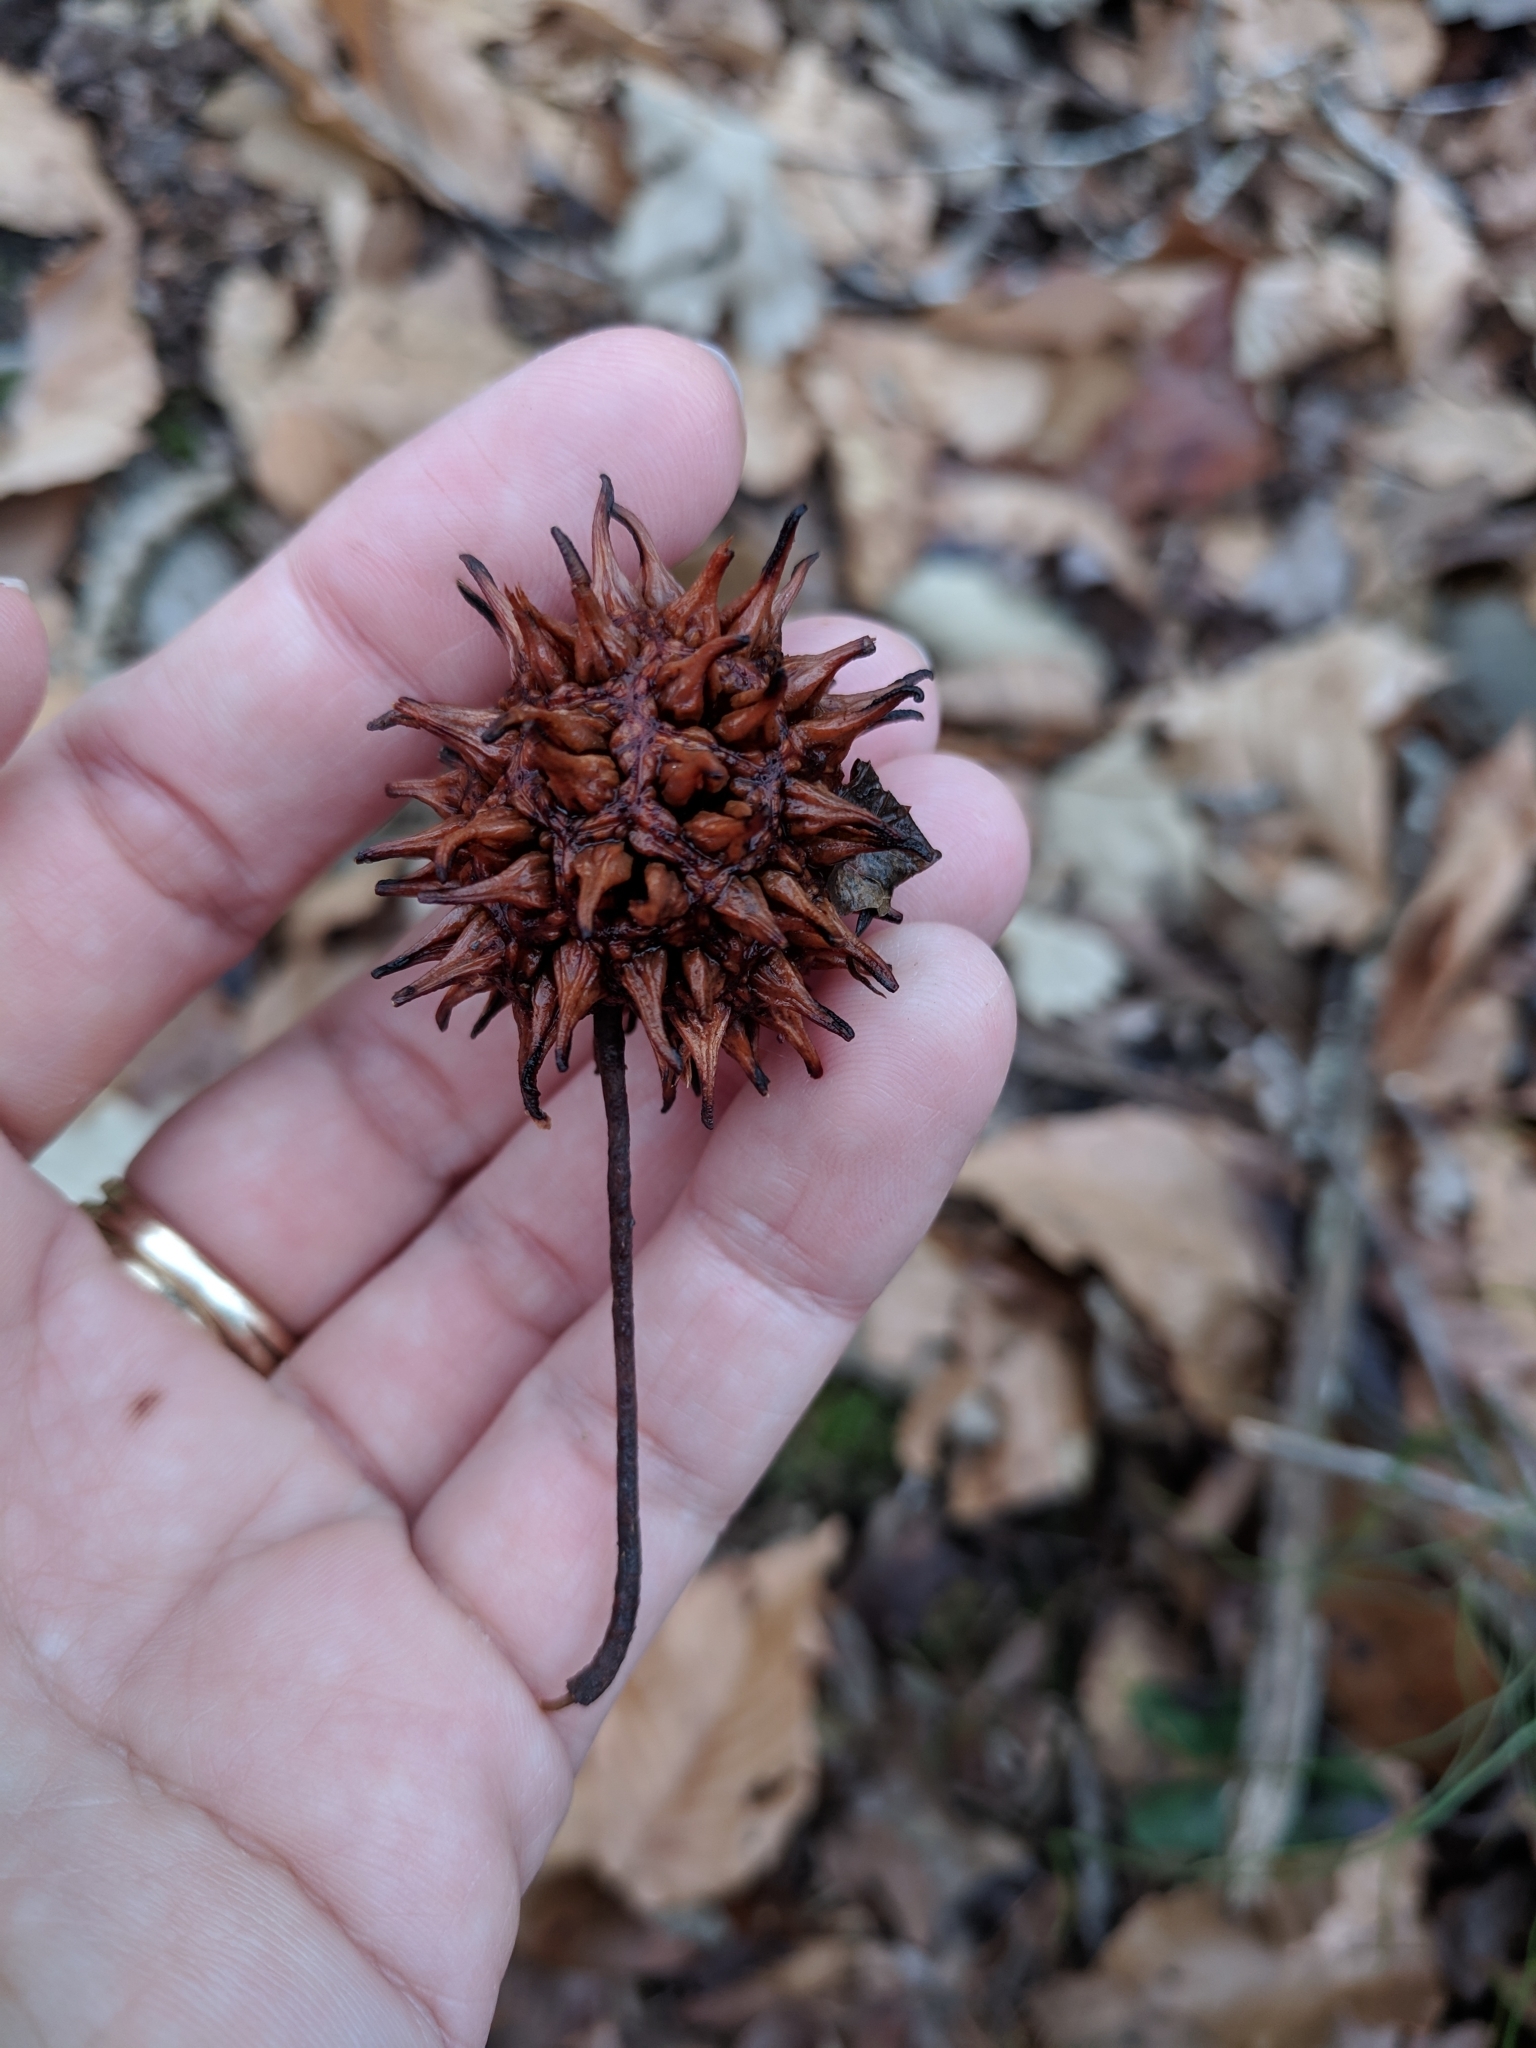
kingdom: Plantae
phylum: Tracheophyta
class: Magnoliopsida
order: Saxifragales
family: Altingiaceae
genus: Liquidambar
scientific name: Liquidambar styraciflua
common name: Sweet gum
